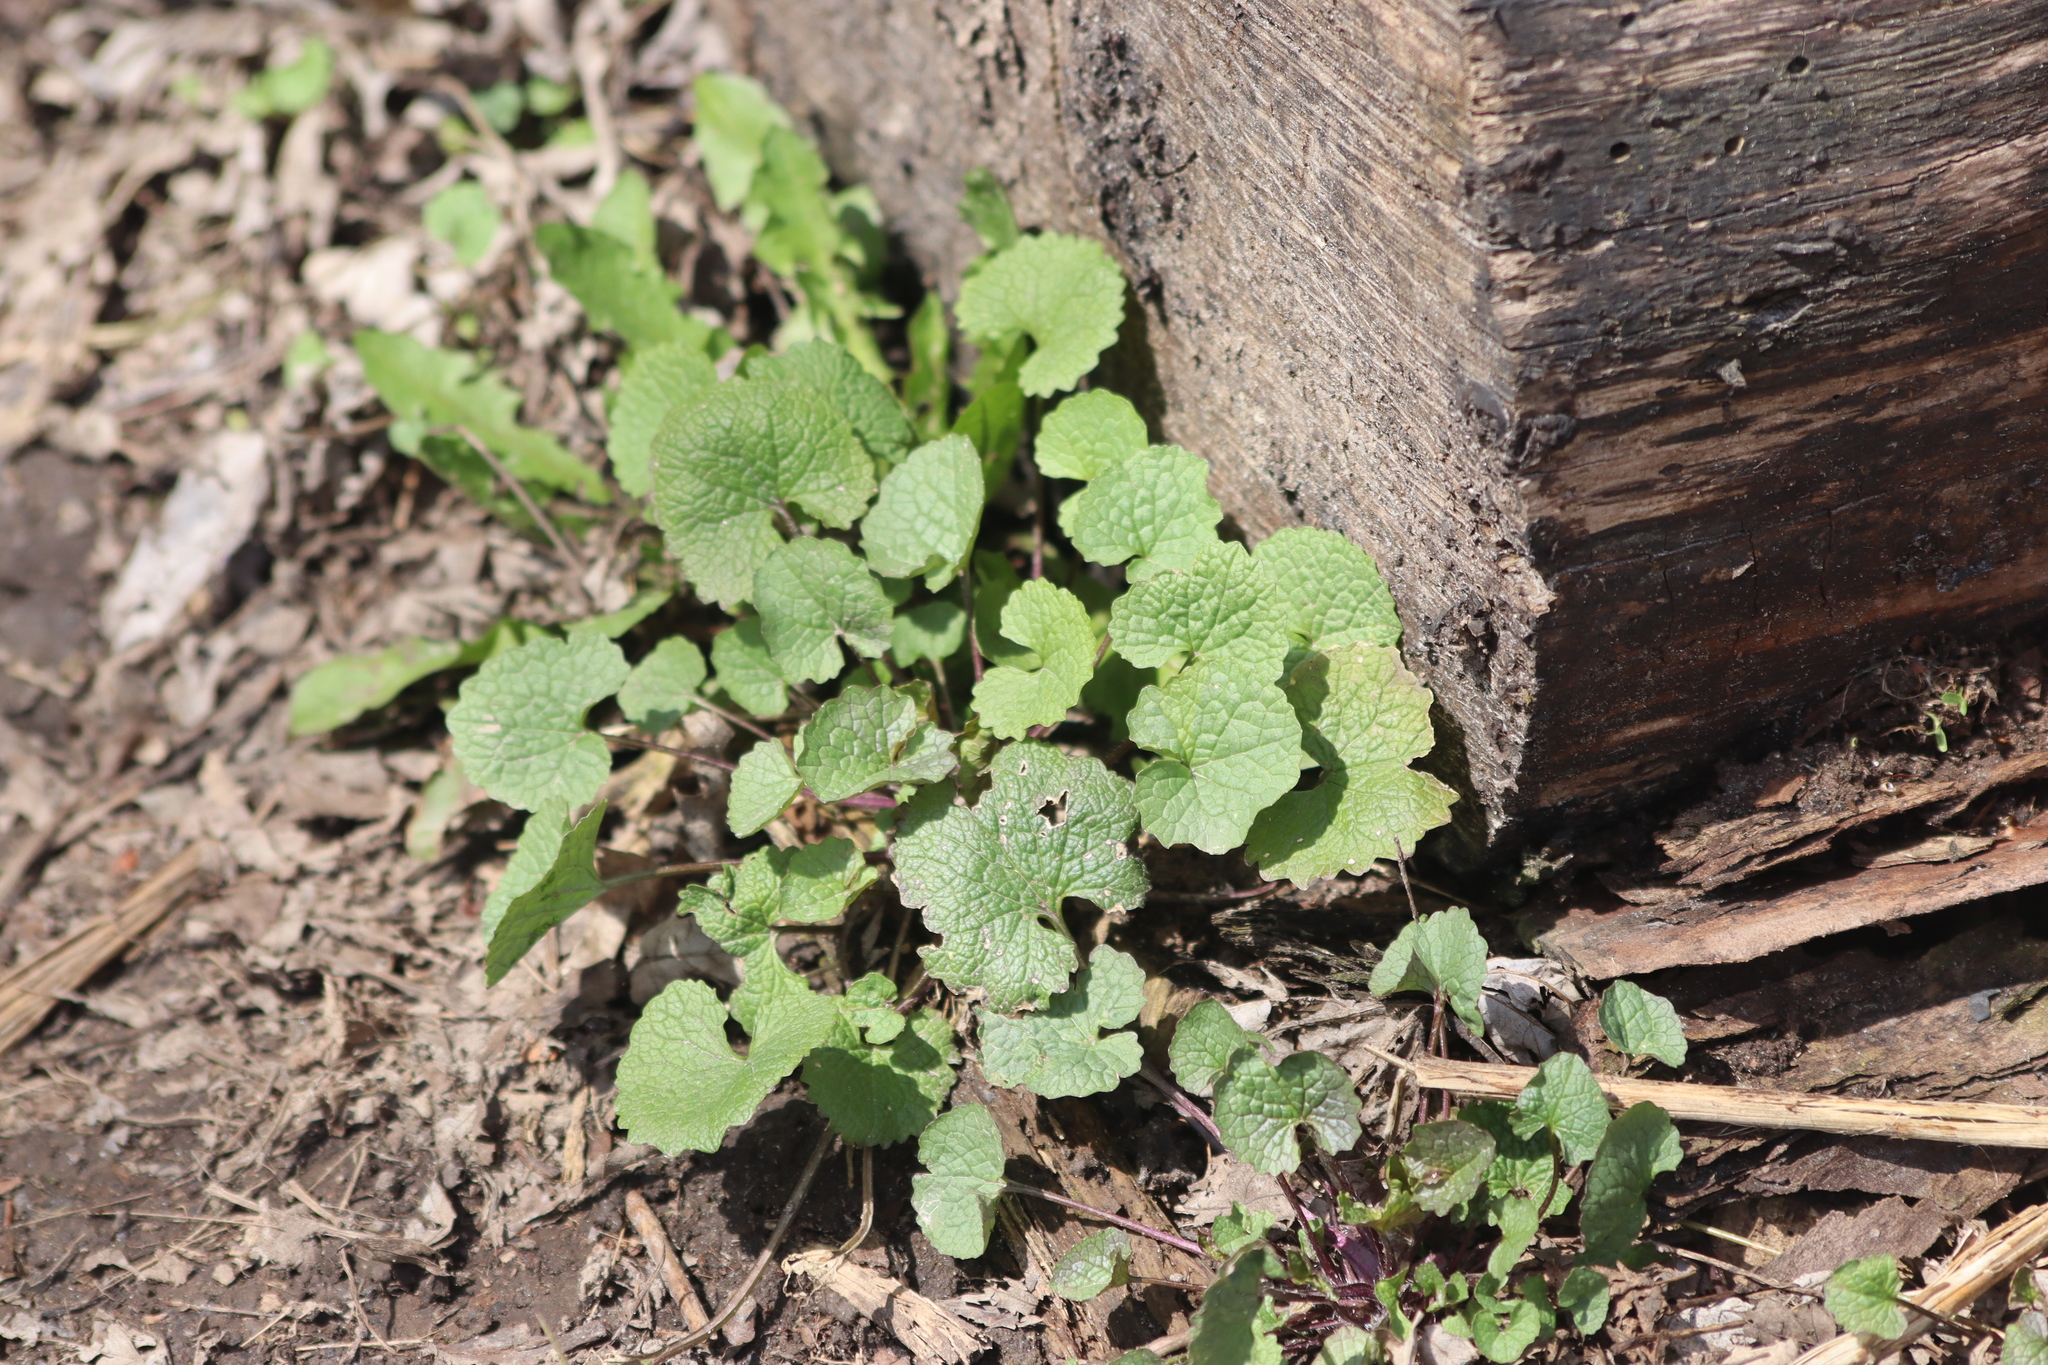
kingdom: Plantae
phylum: Tracheophyta
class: Magnoliopsida
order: Brassicales
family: Brassicaceae
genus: Alliaria
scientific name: Alliaria petiolata
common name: Garlic mustard
